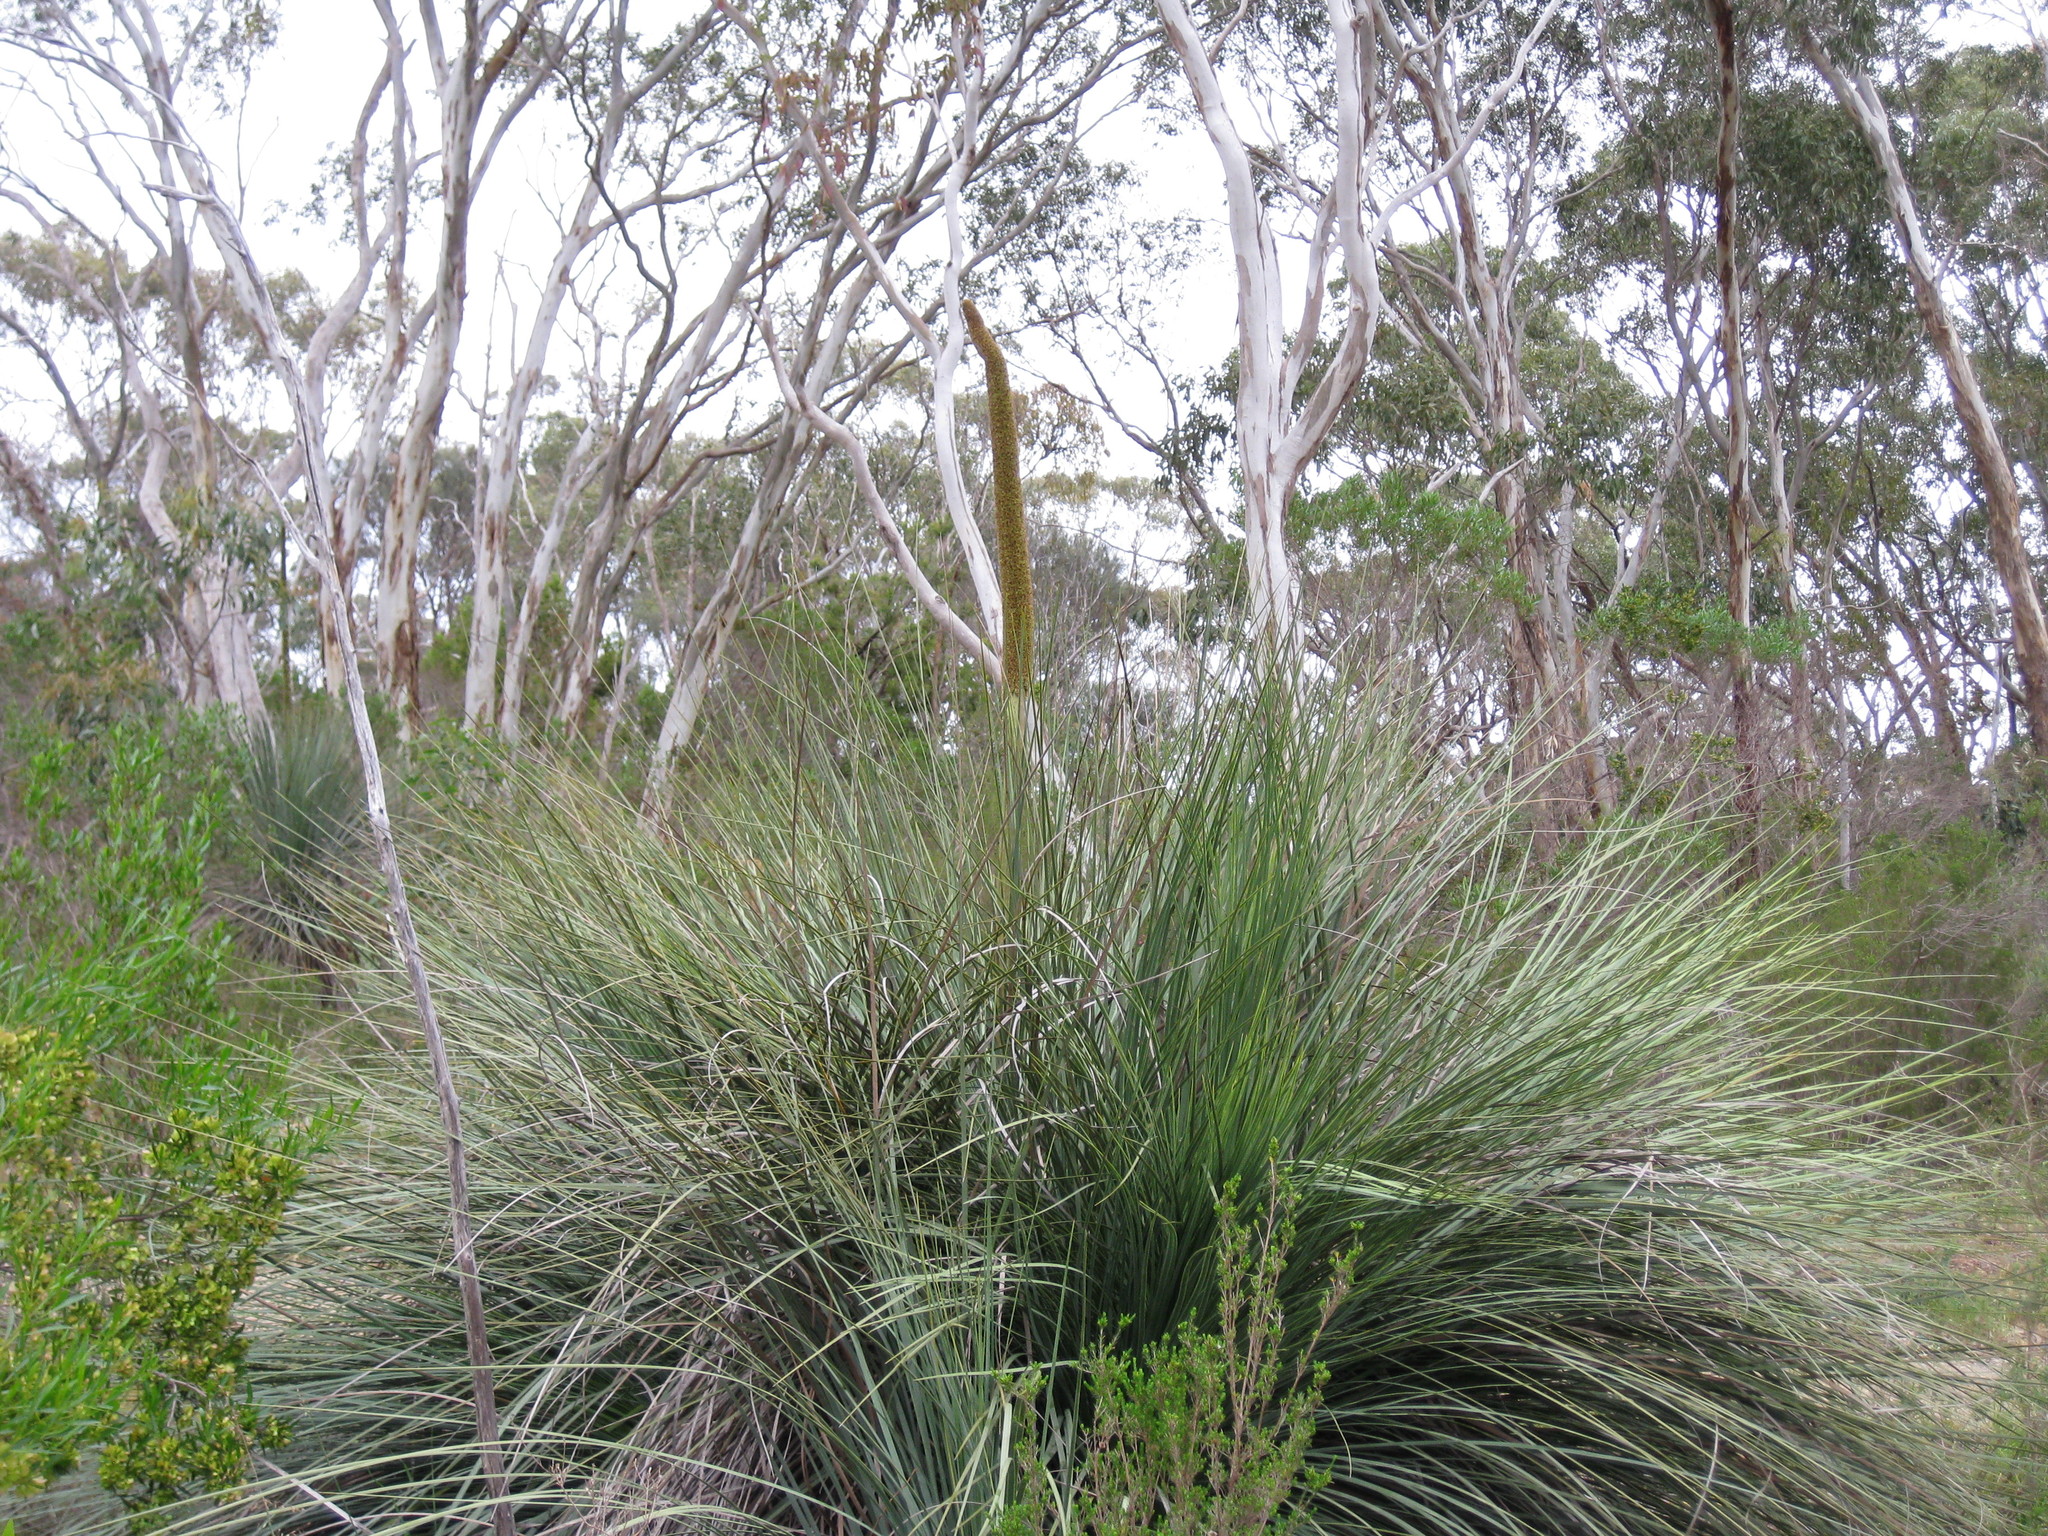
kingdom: Plantae
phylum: Tracheophyta
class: Liliopsida
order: Asparagales
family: Asphodelaceae
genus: Xanthorrhoea
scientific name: Xanthorrhoea semiplana
